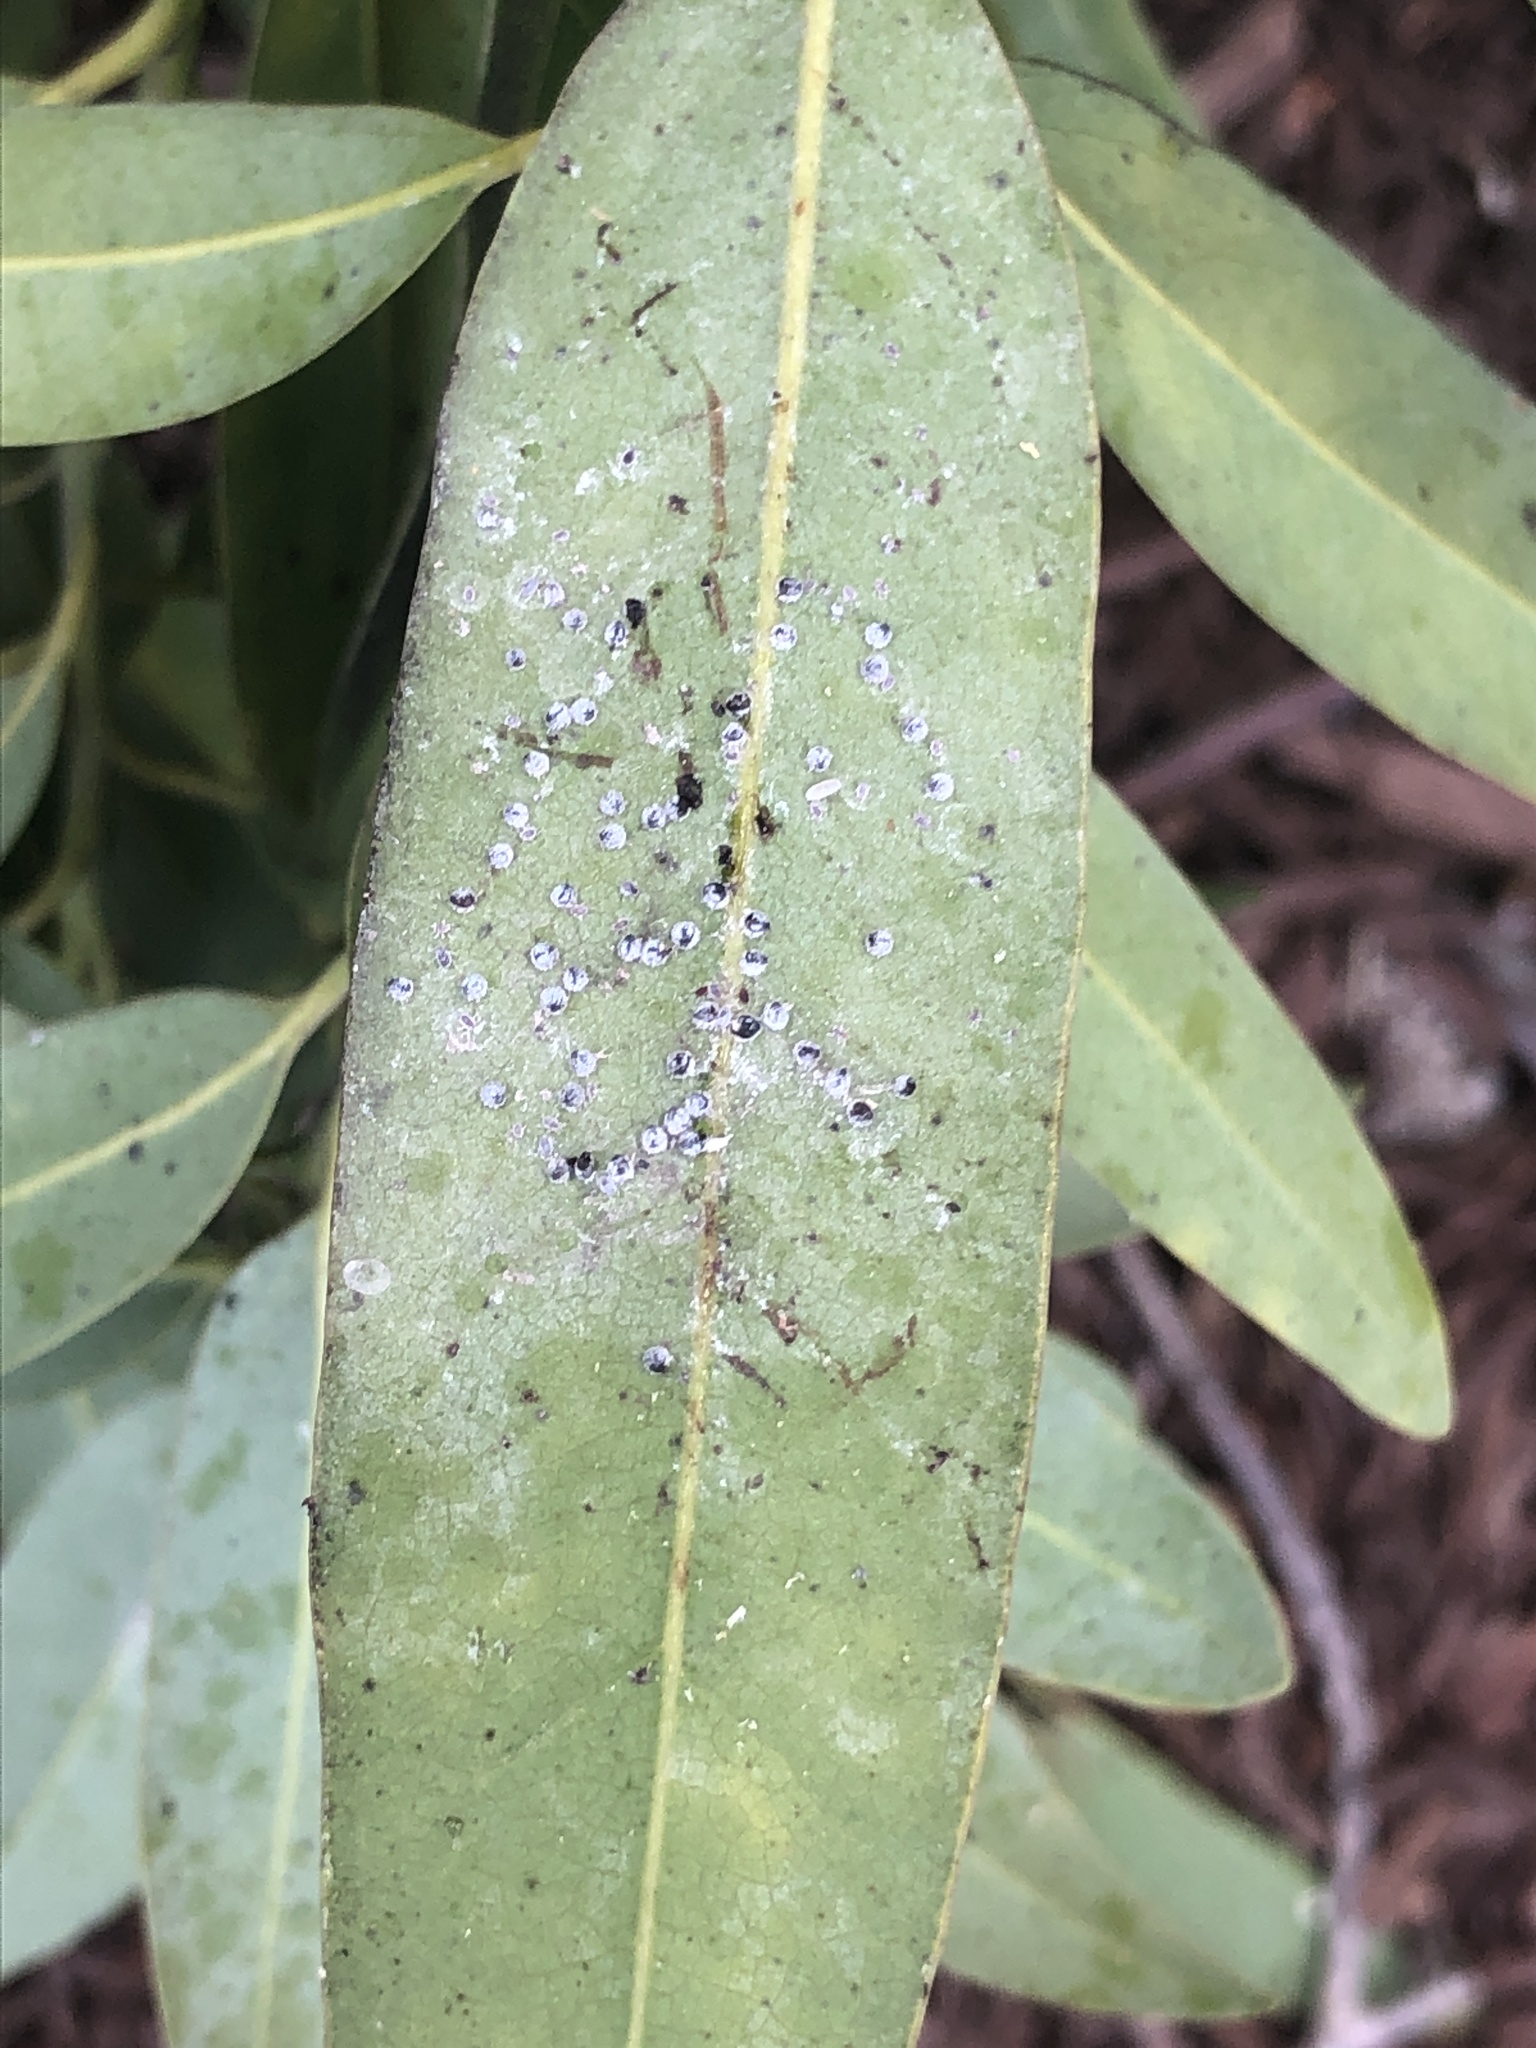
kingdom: Animalia
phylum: Arthropoda
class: Insecta
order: Hemiptera
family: Aphididae
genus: Euthoracaphis
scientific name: Euthoracaphis umbellulariae
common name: Aphid
